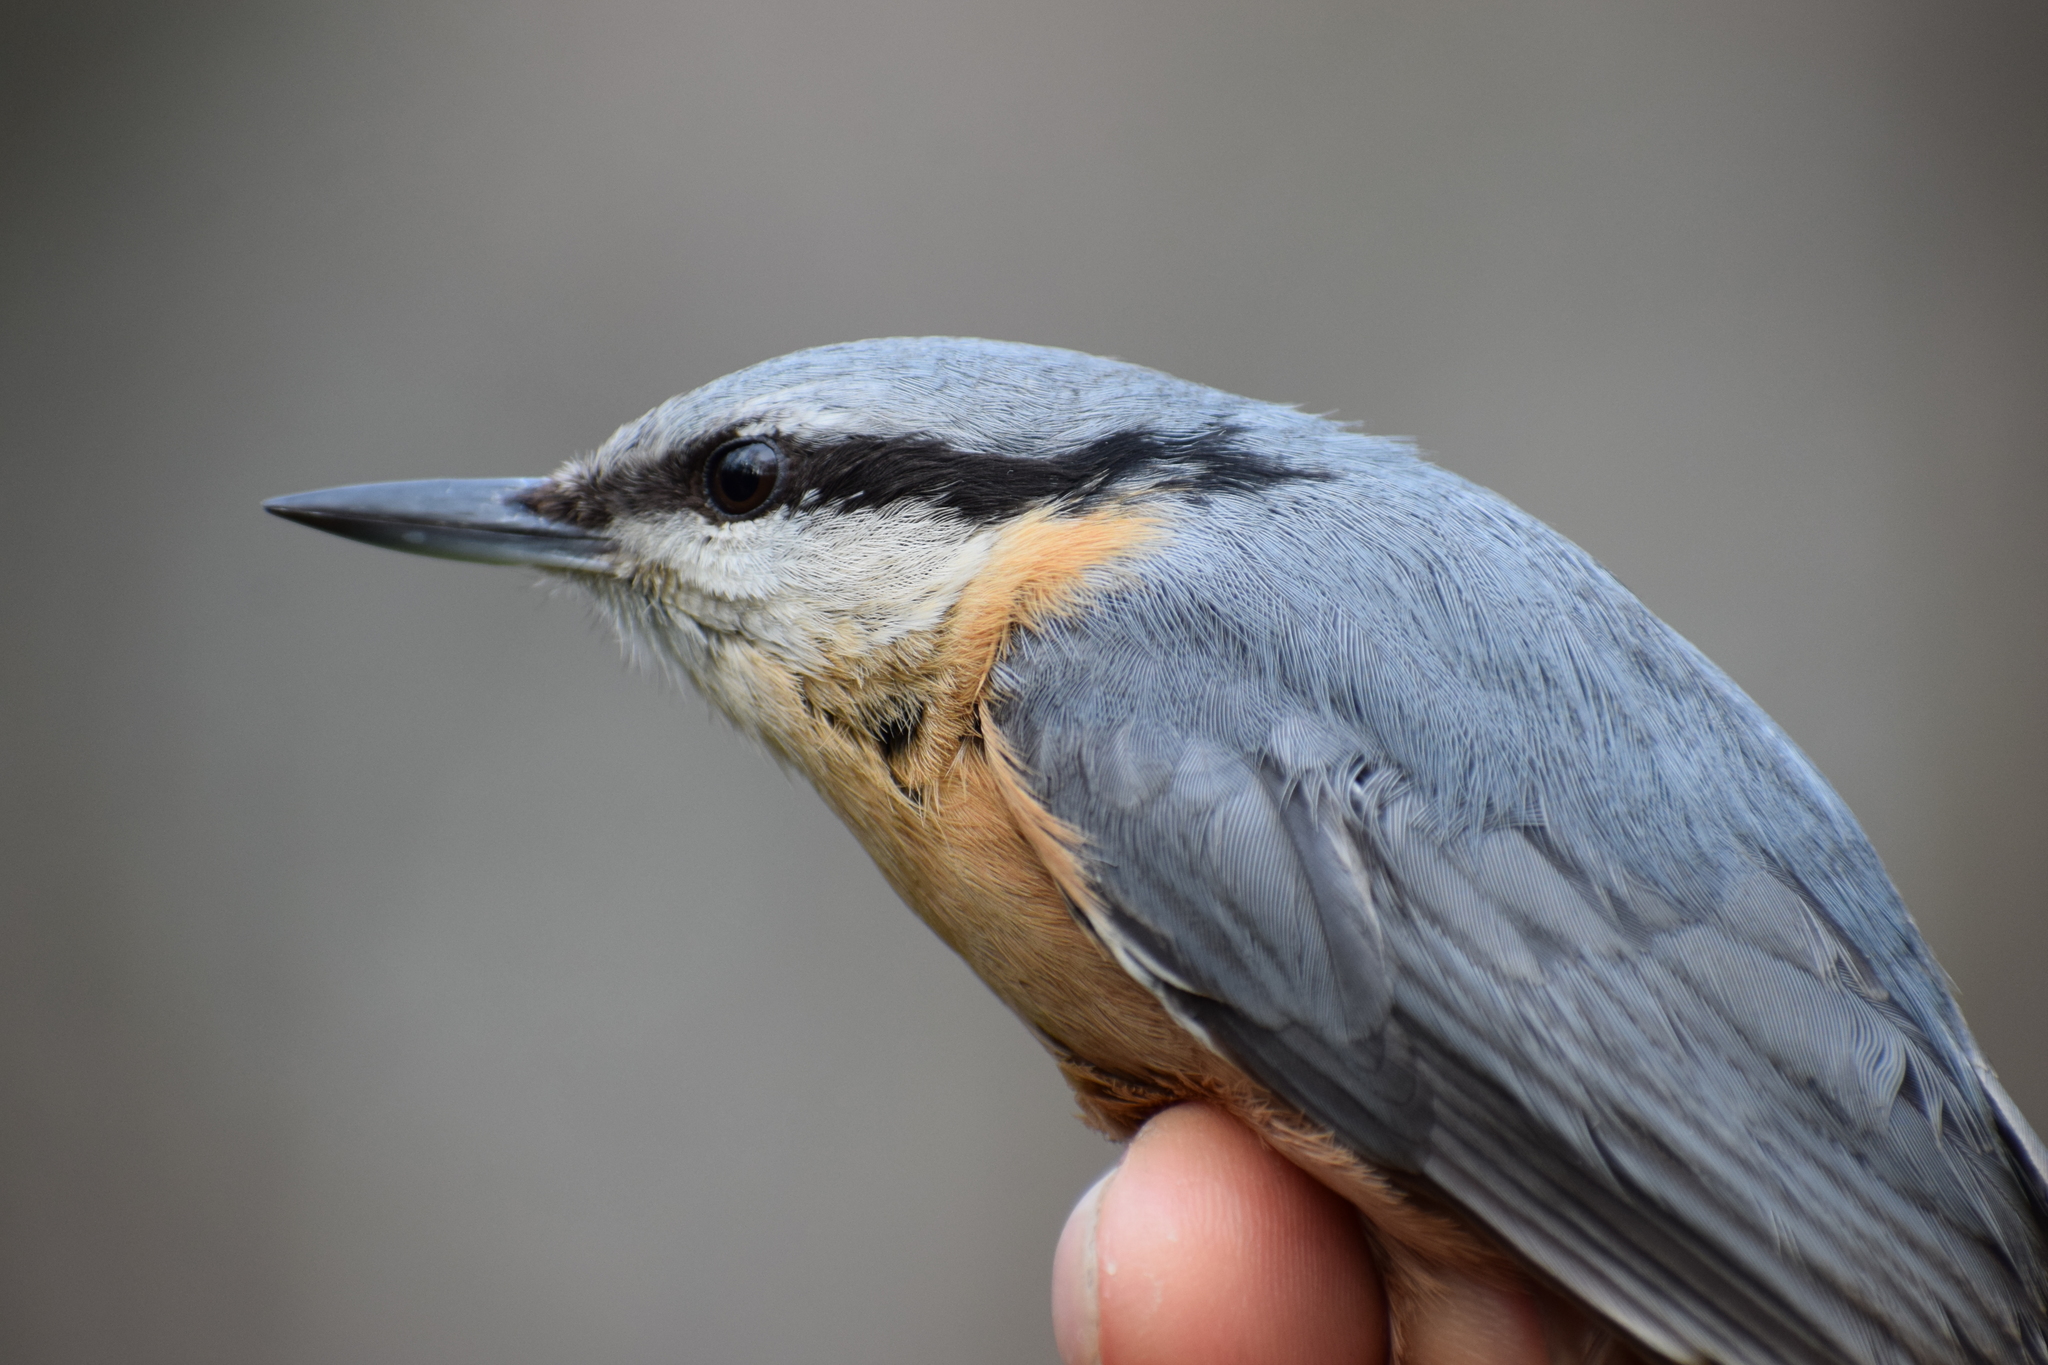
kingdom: Animalia
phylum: Chordata
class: Aves
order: Passeriformes
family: Sittidae
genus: Sitta
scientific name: Sitta europaea
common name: Eurasian nuthatch
